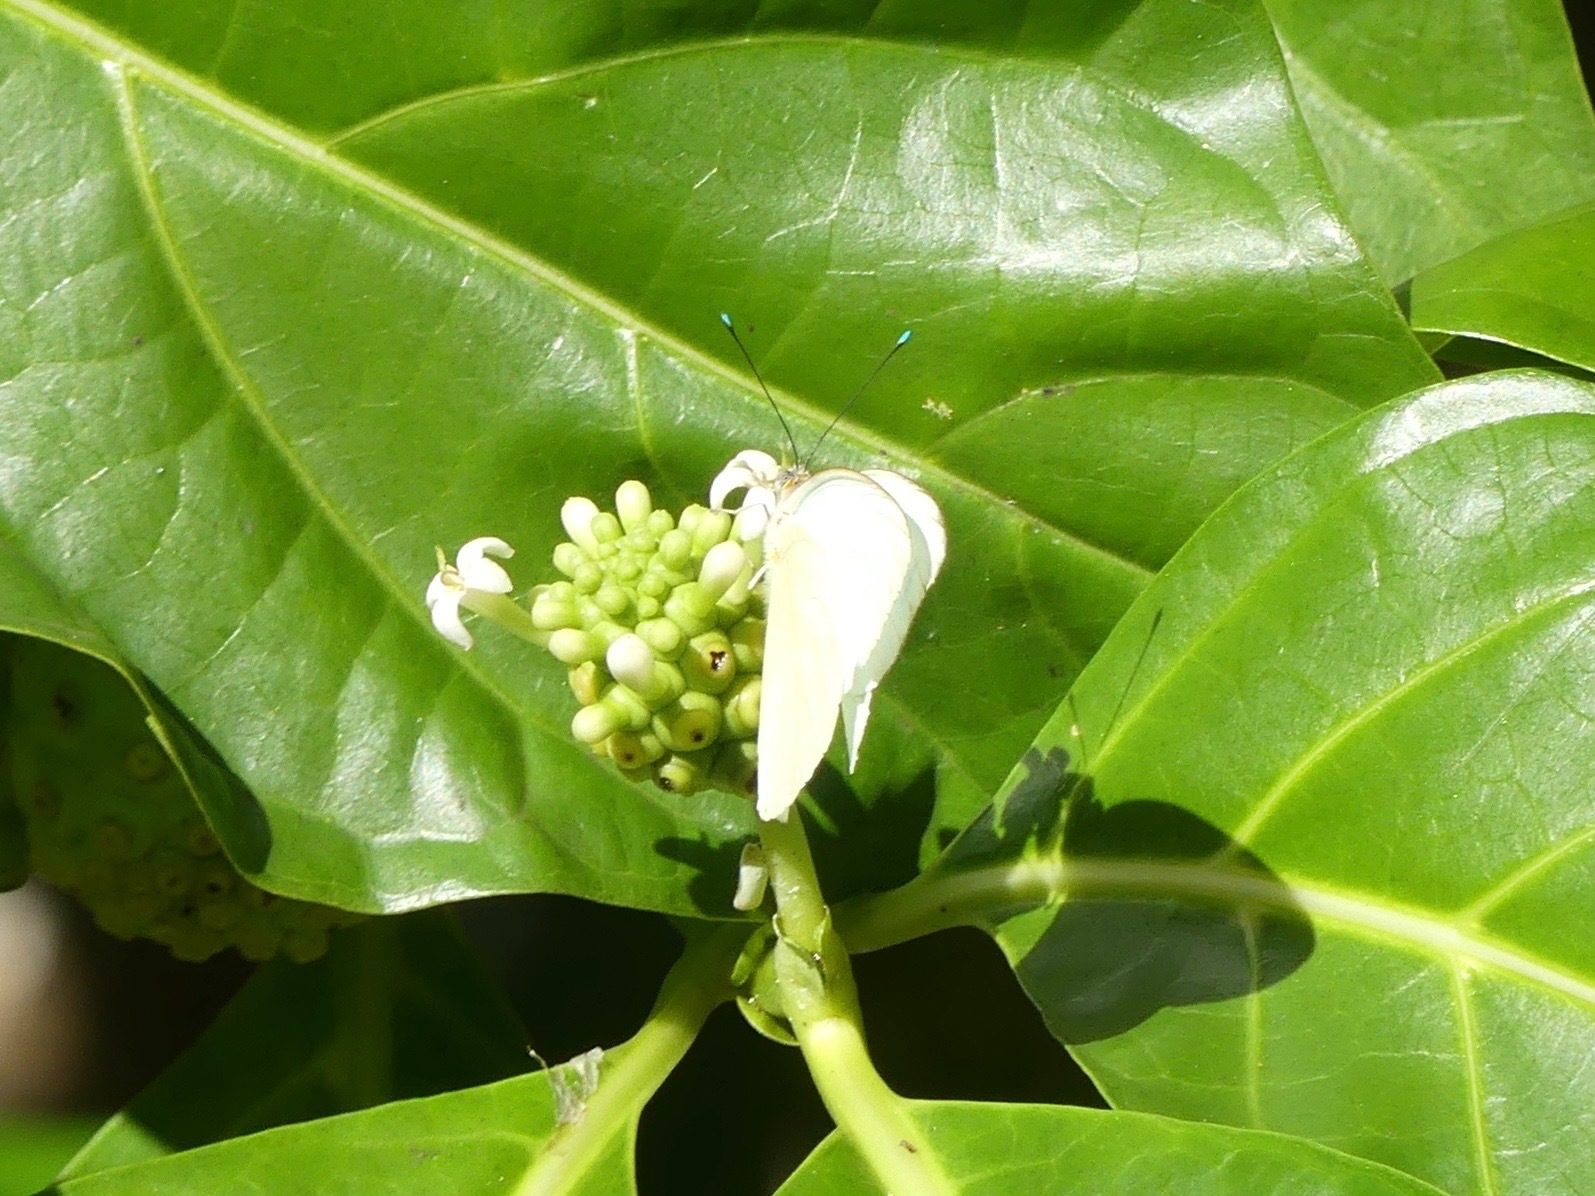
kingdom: Animalia
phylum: Arthropoda
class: Insecta
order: Lepidoptera
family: Pieridae
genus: Ascia
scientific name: Ascia monuste
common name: Great southern white
